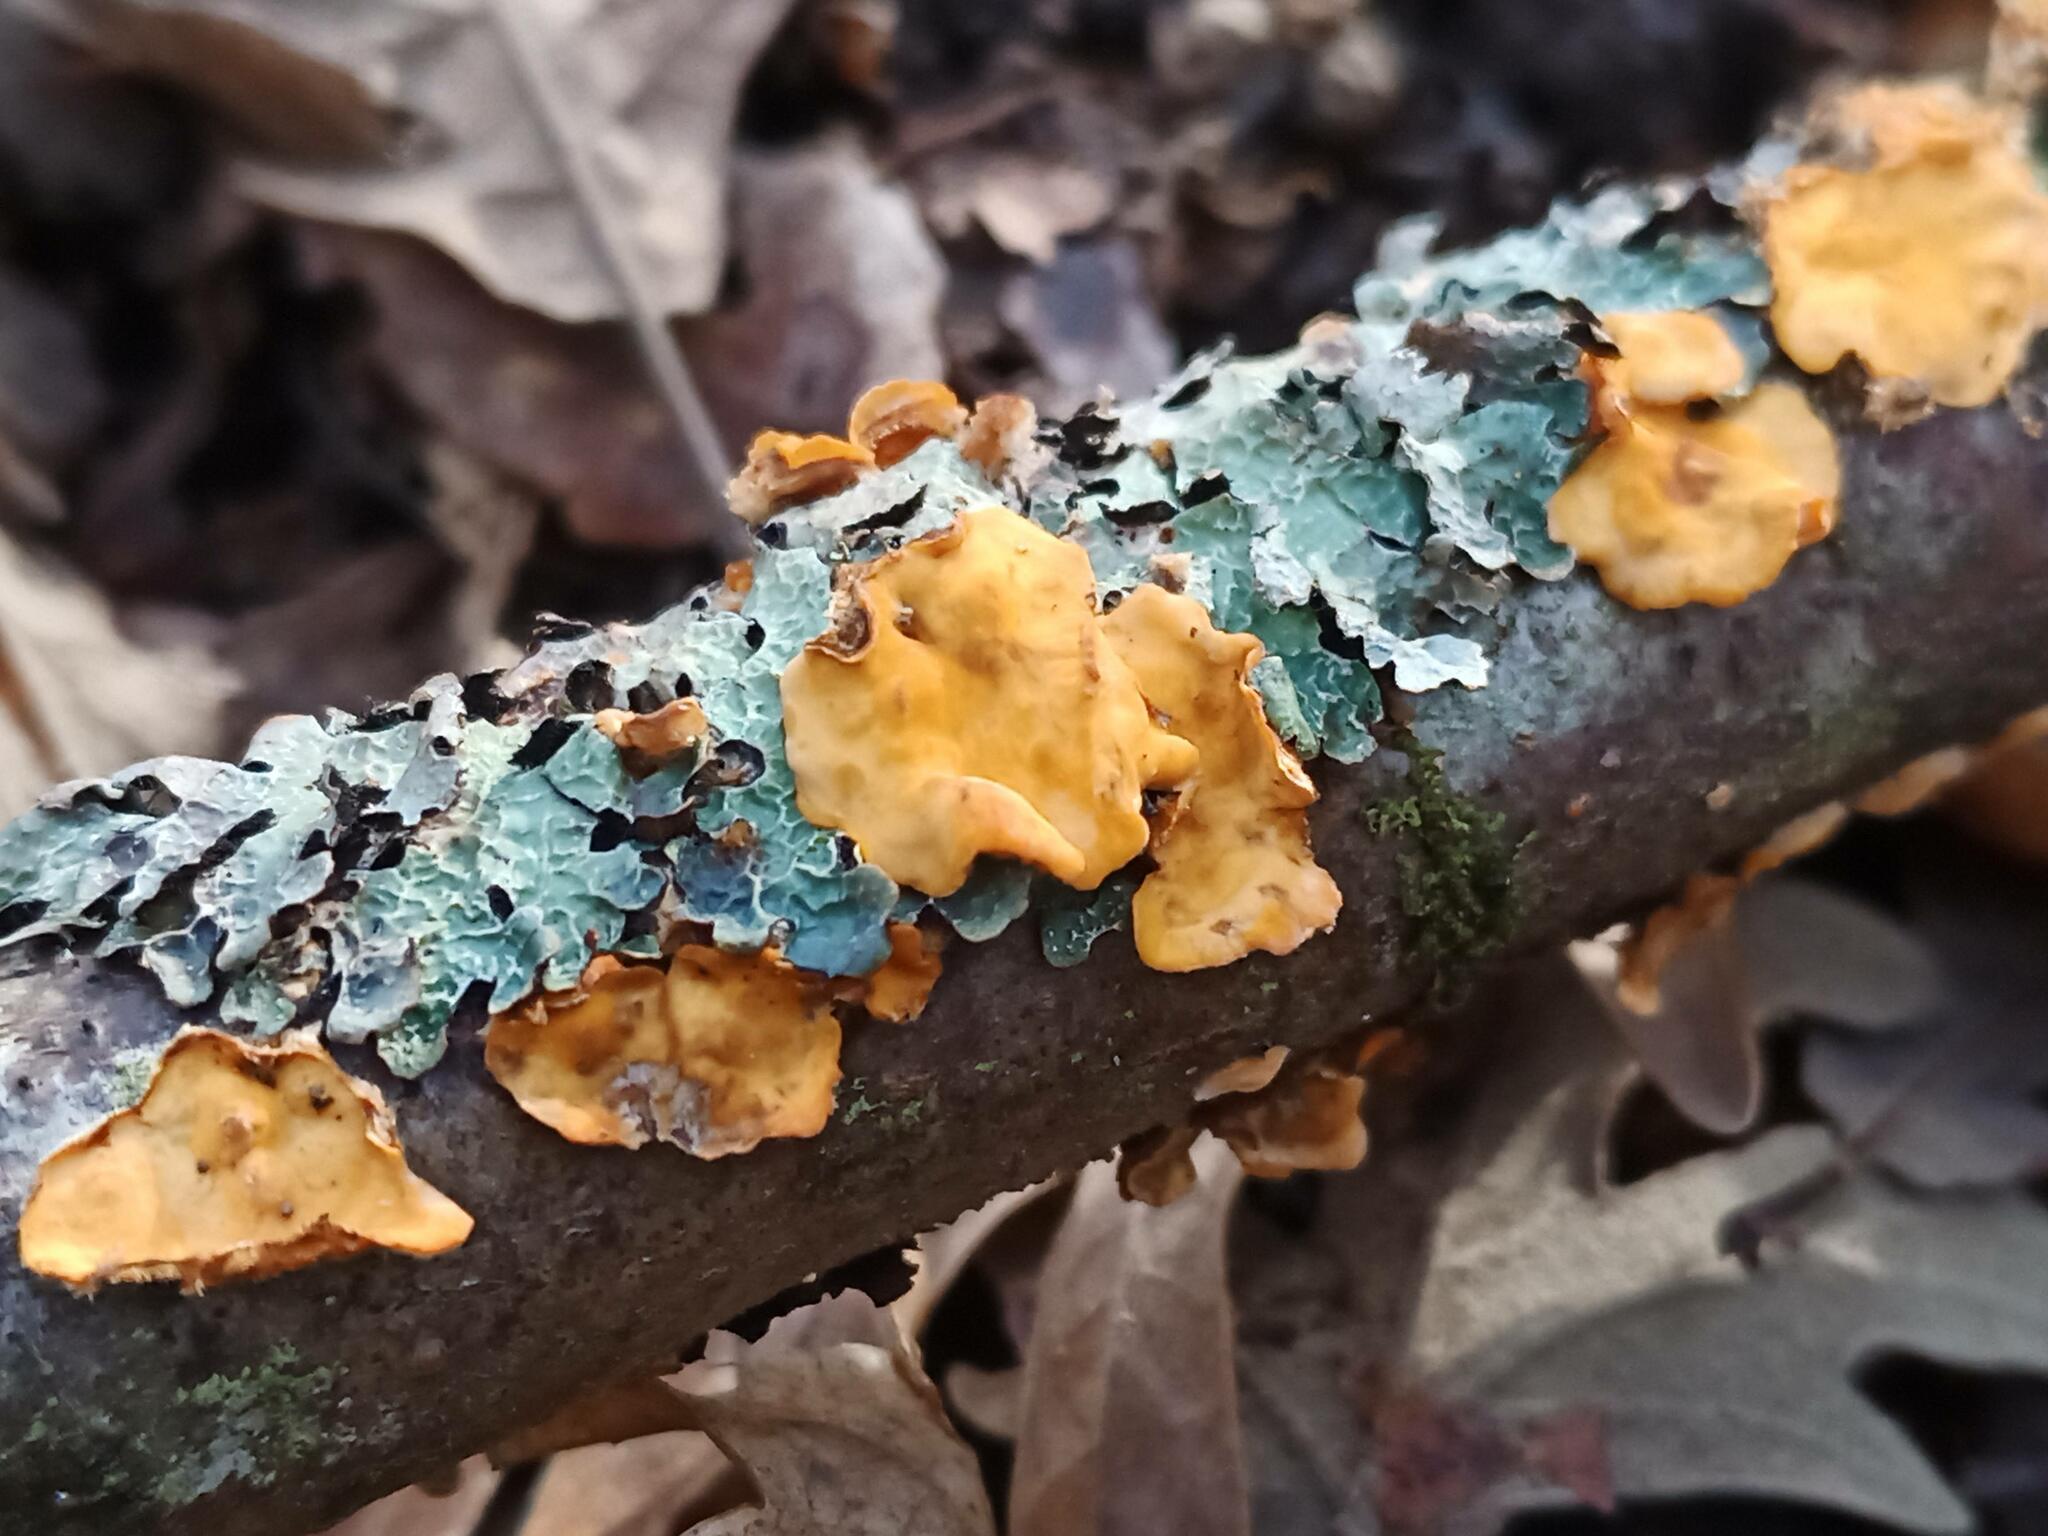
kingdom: Fungi
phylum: Basidiomycota
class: Agaricomycetes
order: Russulales
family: Stereaceae
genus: Stereum
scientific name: Stereum hirsutum
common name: Hairy curtain crust
